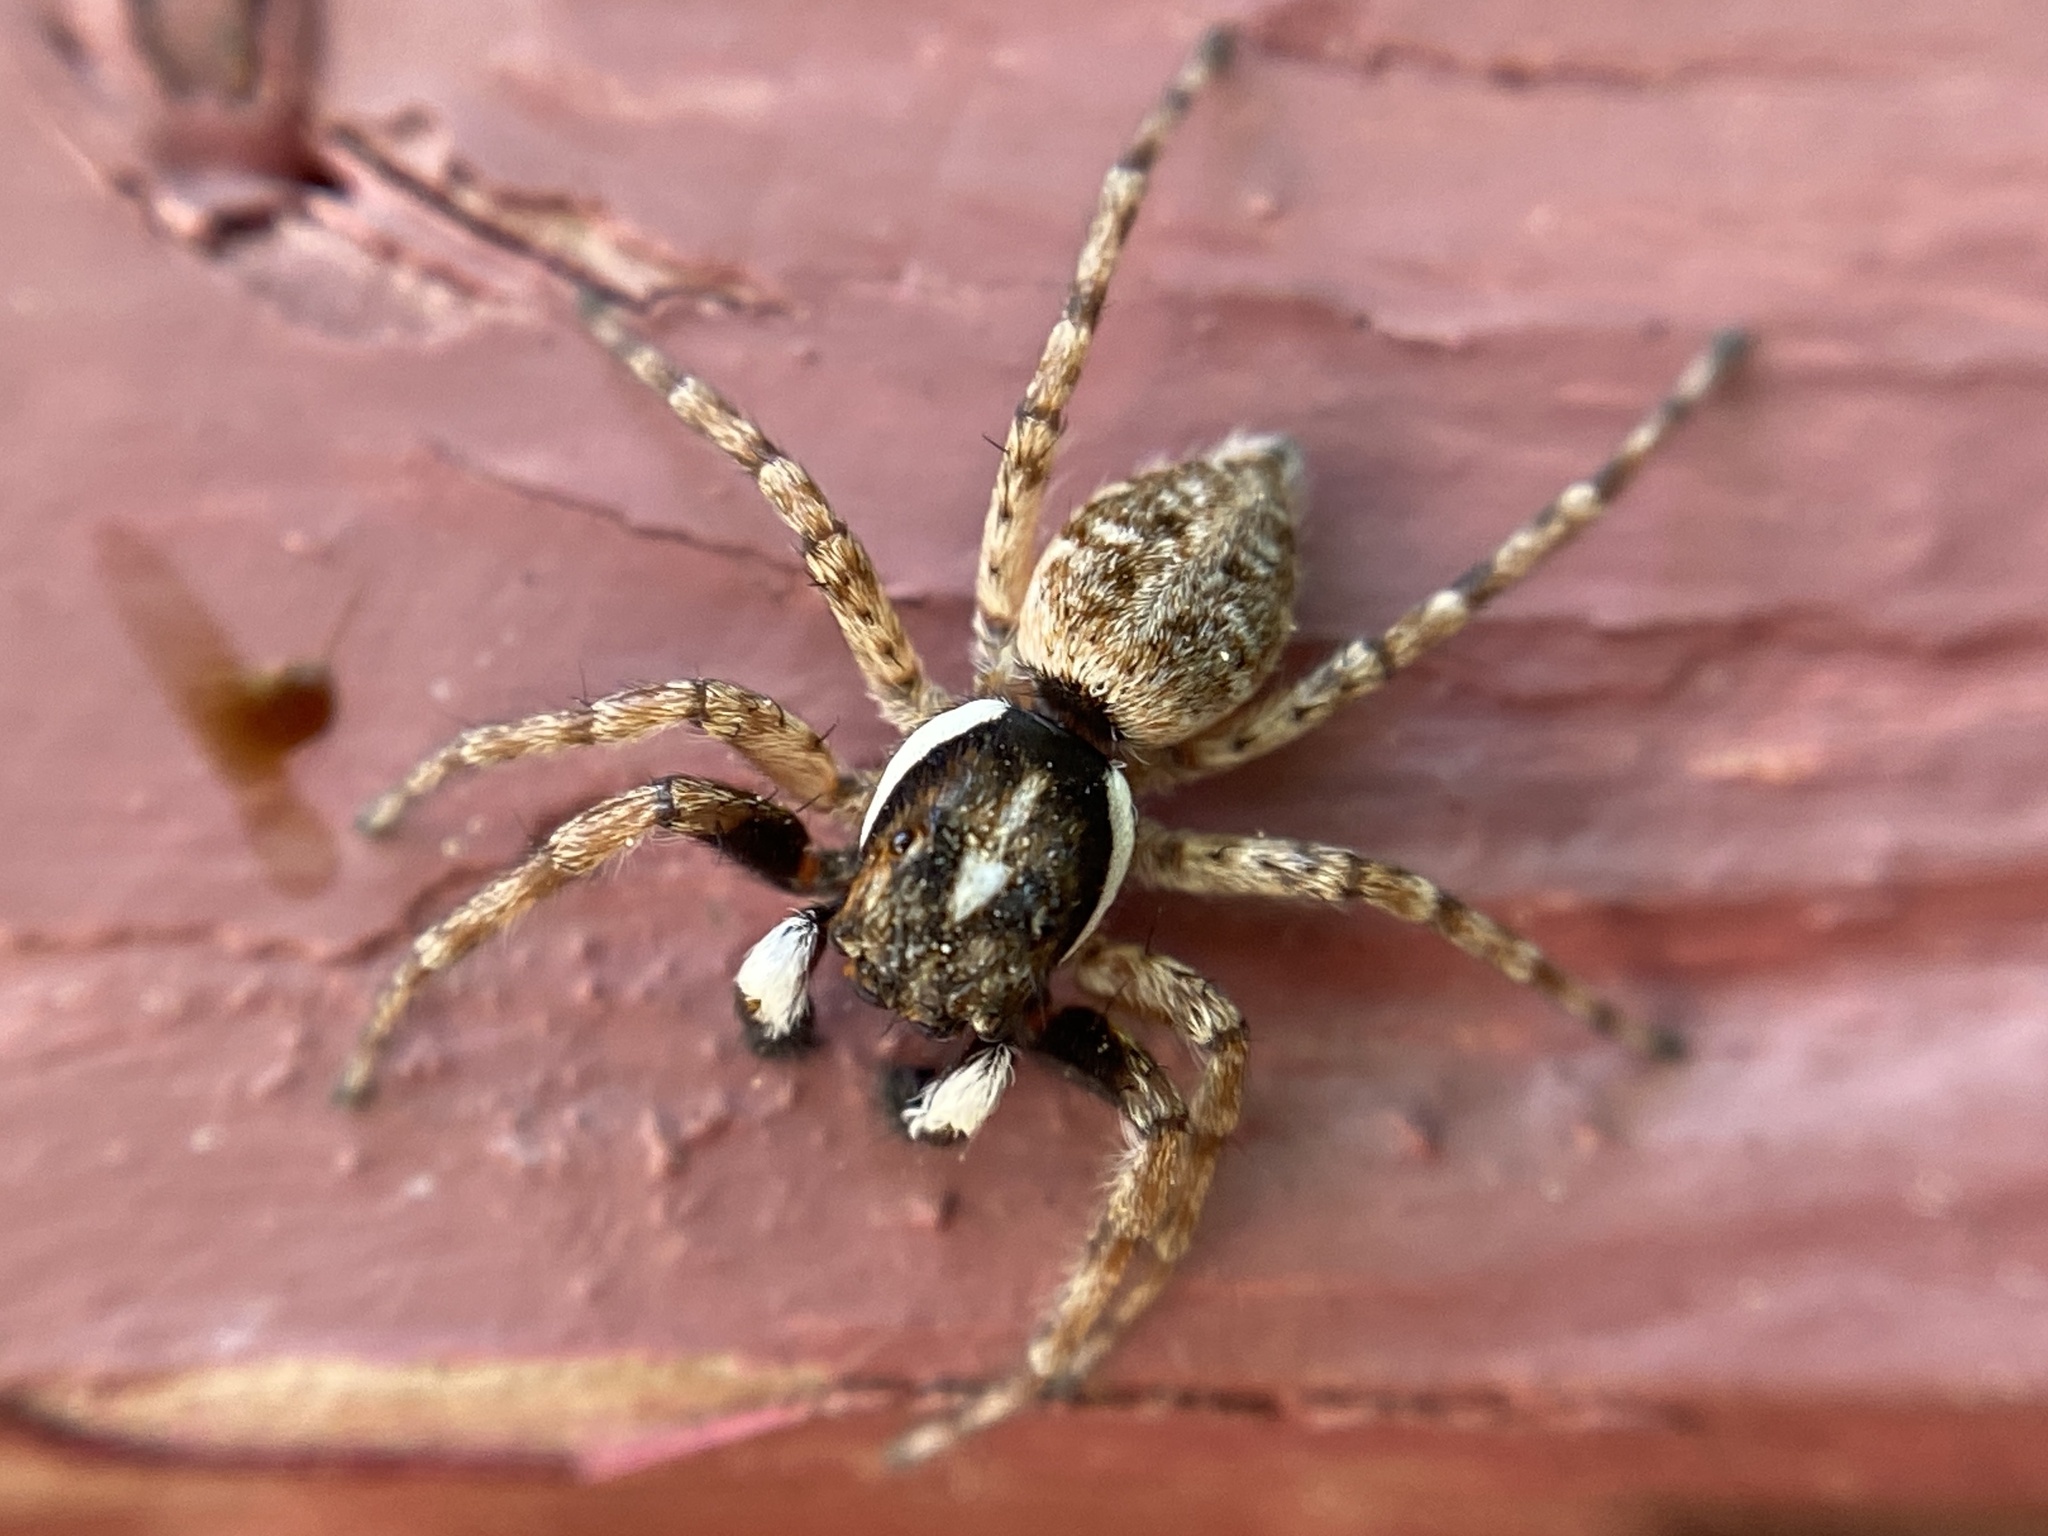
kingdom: Animalia
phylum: Arthropoda
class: Arachnida
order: Araneae
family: Salticidae
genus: Menemerus
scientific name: Menemerus semilimbatus
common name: Jumping spider
